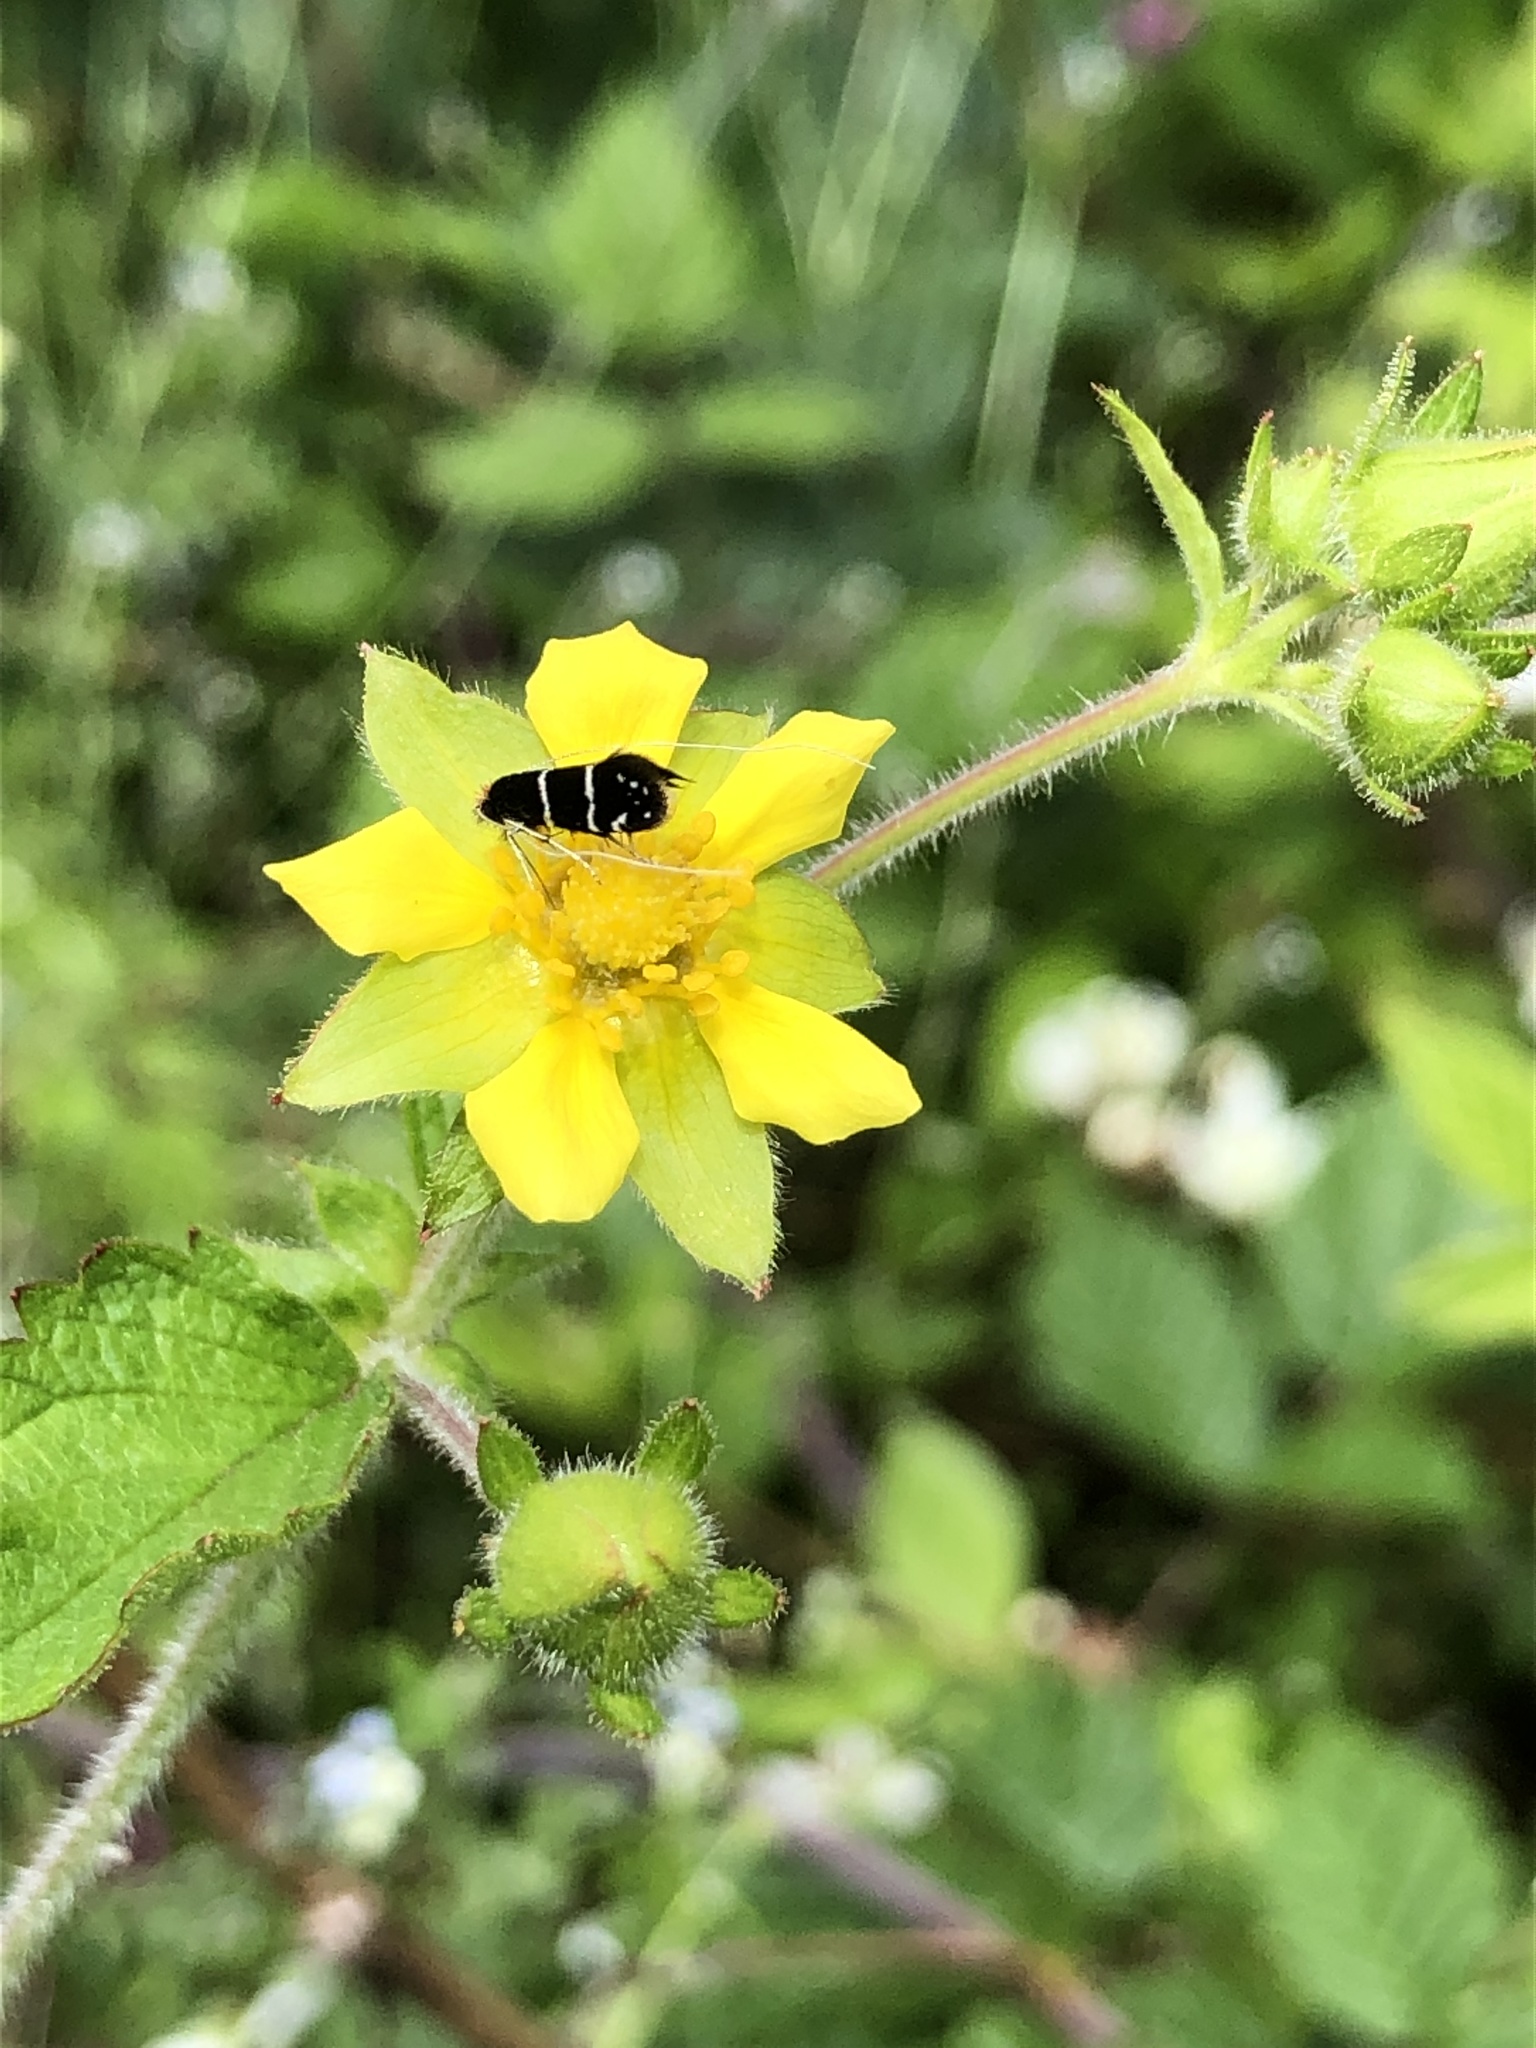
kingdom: Animalia
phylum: Arthropoda
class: Insecta
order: Lepidoptera
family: Adelidae
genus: Adela
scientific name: Adela septentrionella
